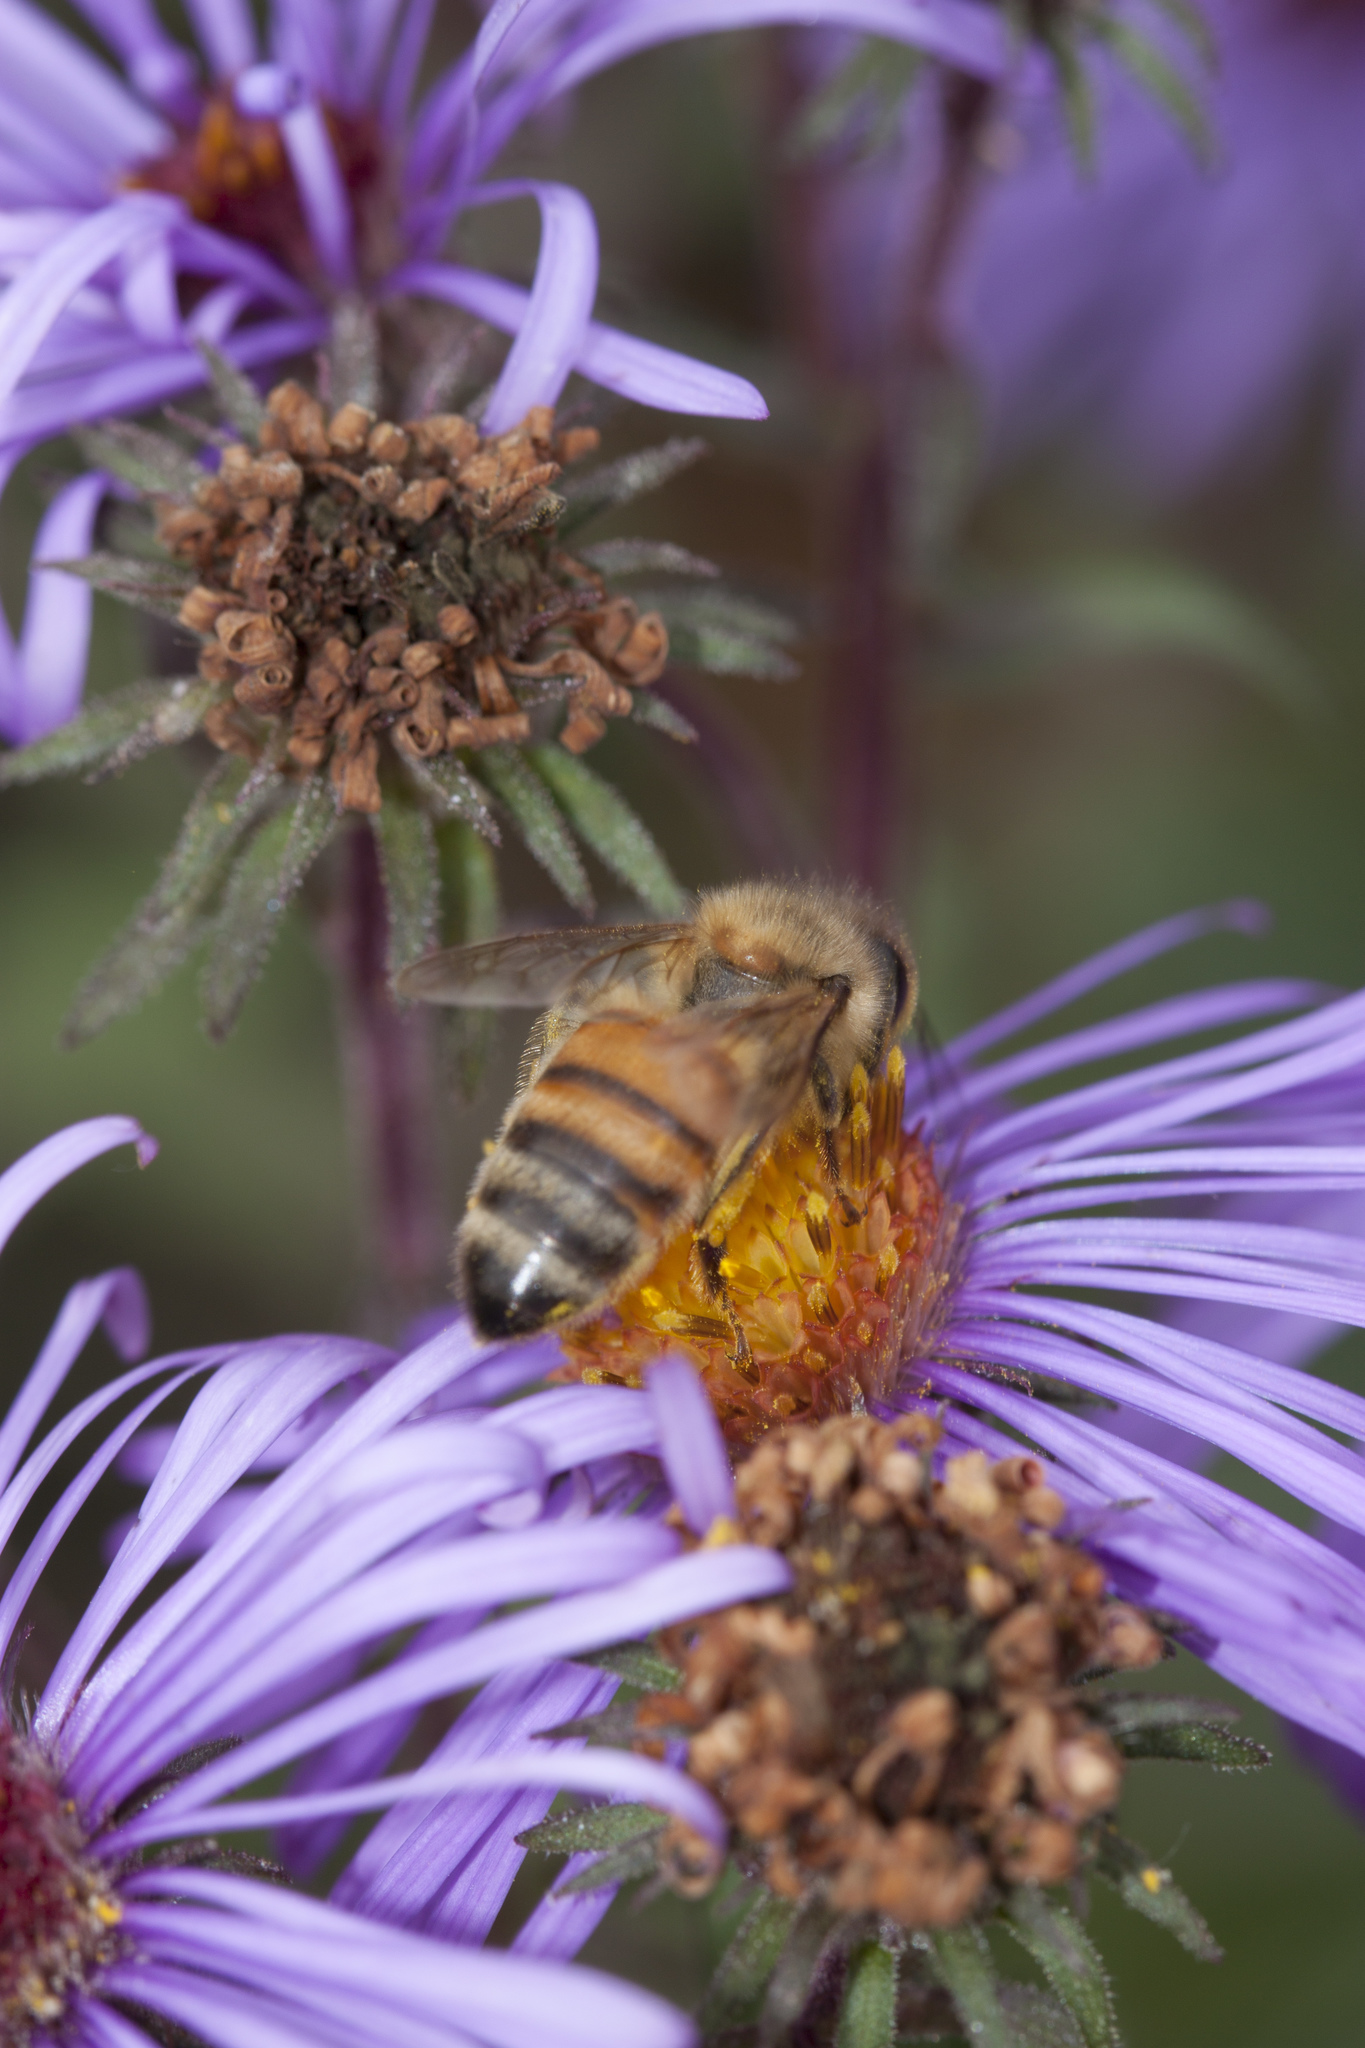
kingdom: Animalia
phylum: Arthropoda
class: Insecta
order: Hymenoptera
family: Apidae
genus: Apis
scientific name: Apis mellifera
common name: Honey bee
